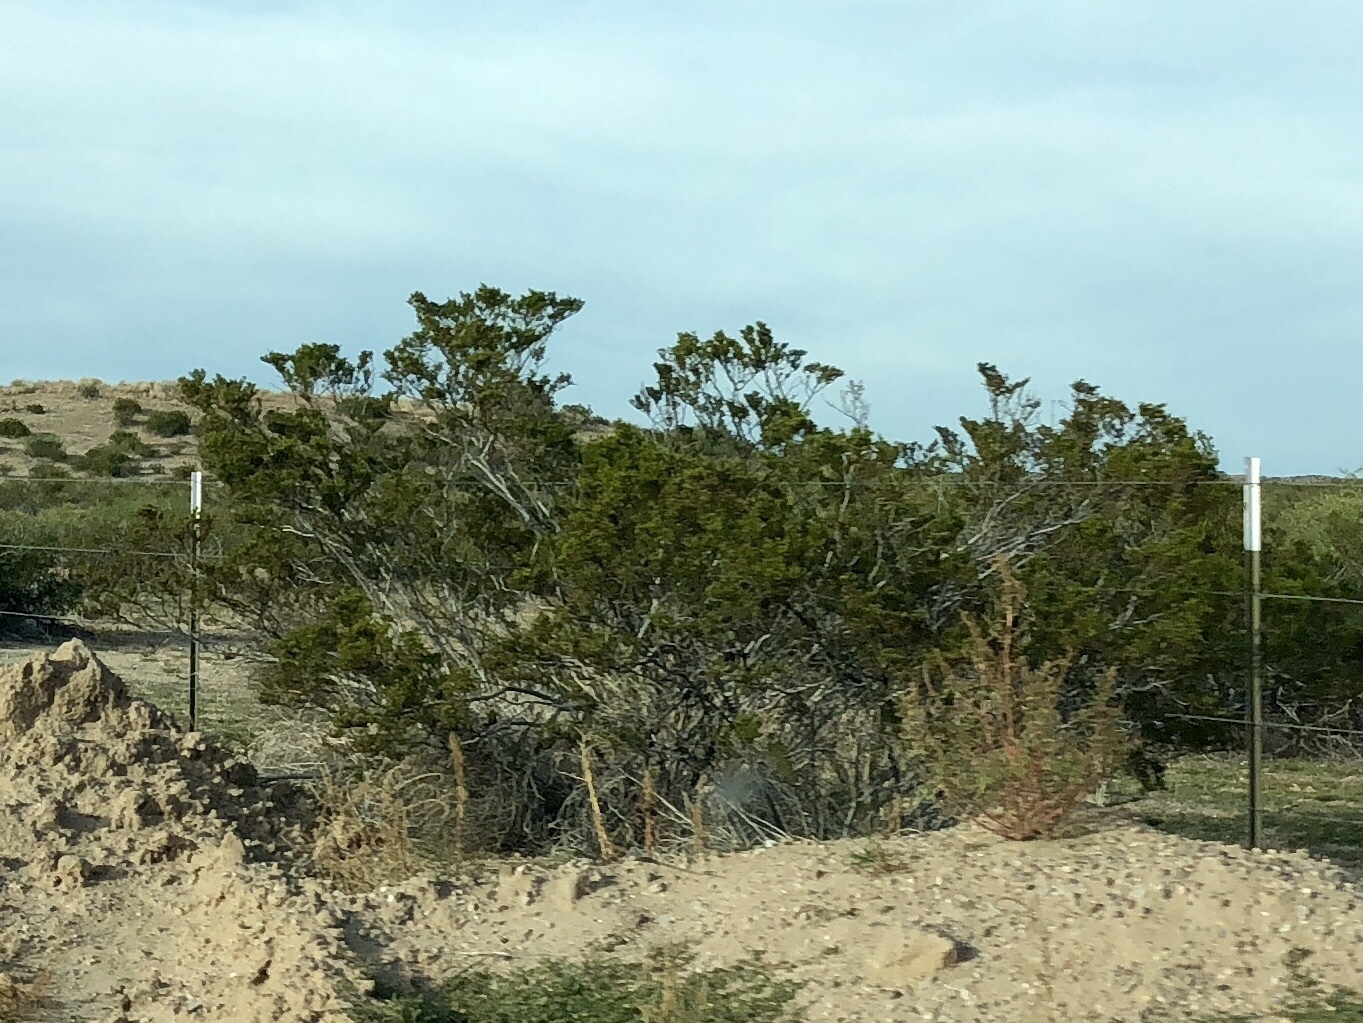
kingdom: Plantae
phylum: Tracheophyta
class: Magnoliopsida
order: Zygophyllales
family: Zygophyllaceae
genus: Larrea
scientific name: Larrea tridentata
